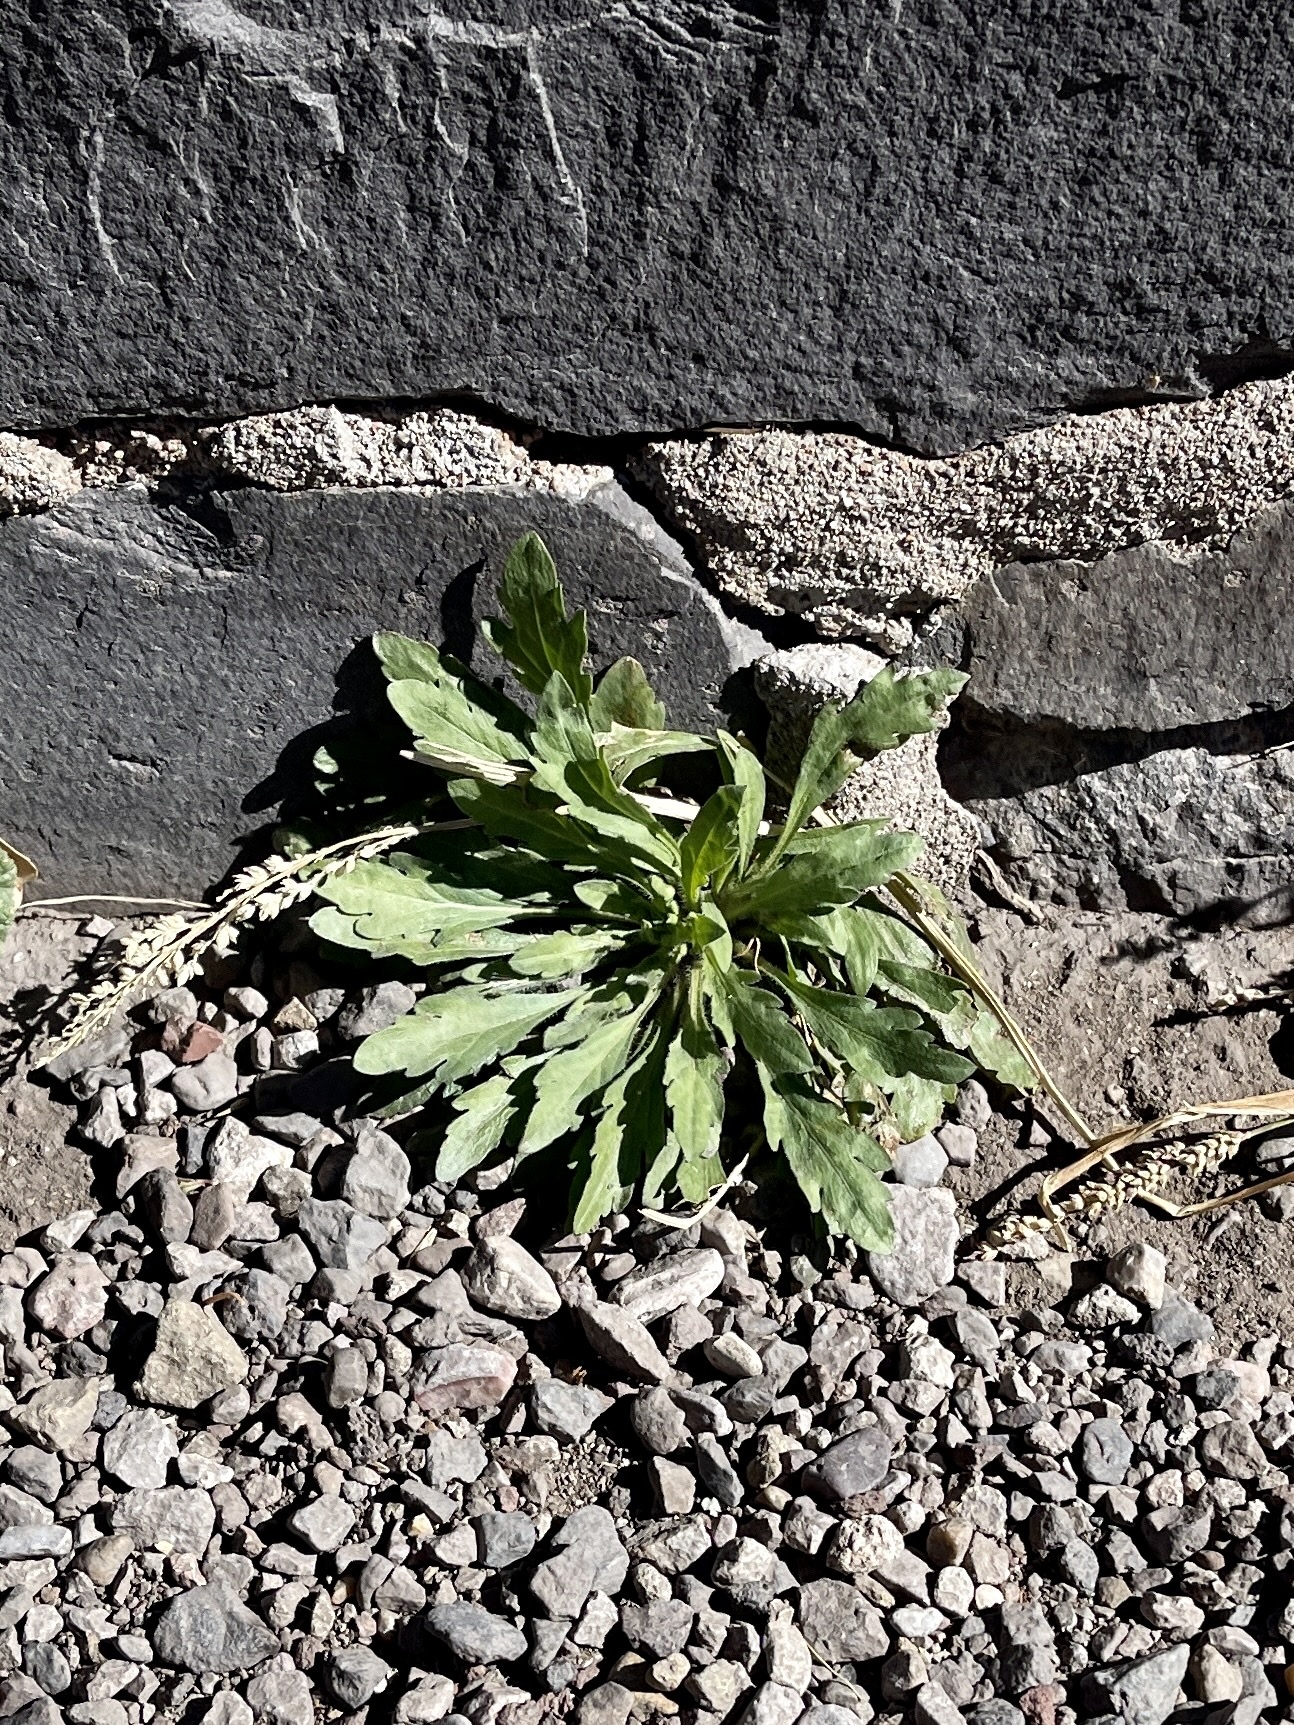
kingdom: Plantae
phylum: Tracheophyta
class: Magnoliopsida
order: Asterales
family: Asteraceae
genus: Erigeron
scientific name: Erigeron canadensis
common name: Canadian fleabane
